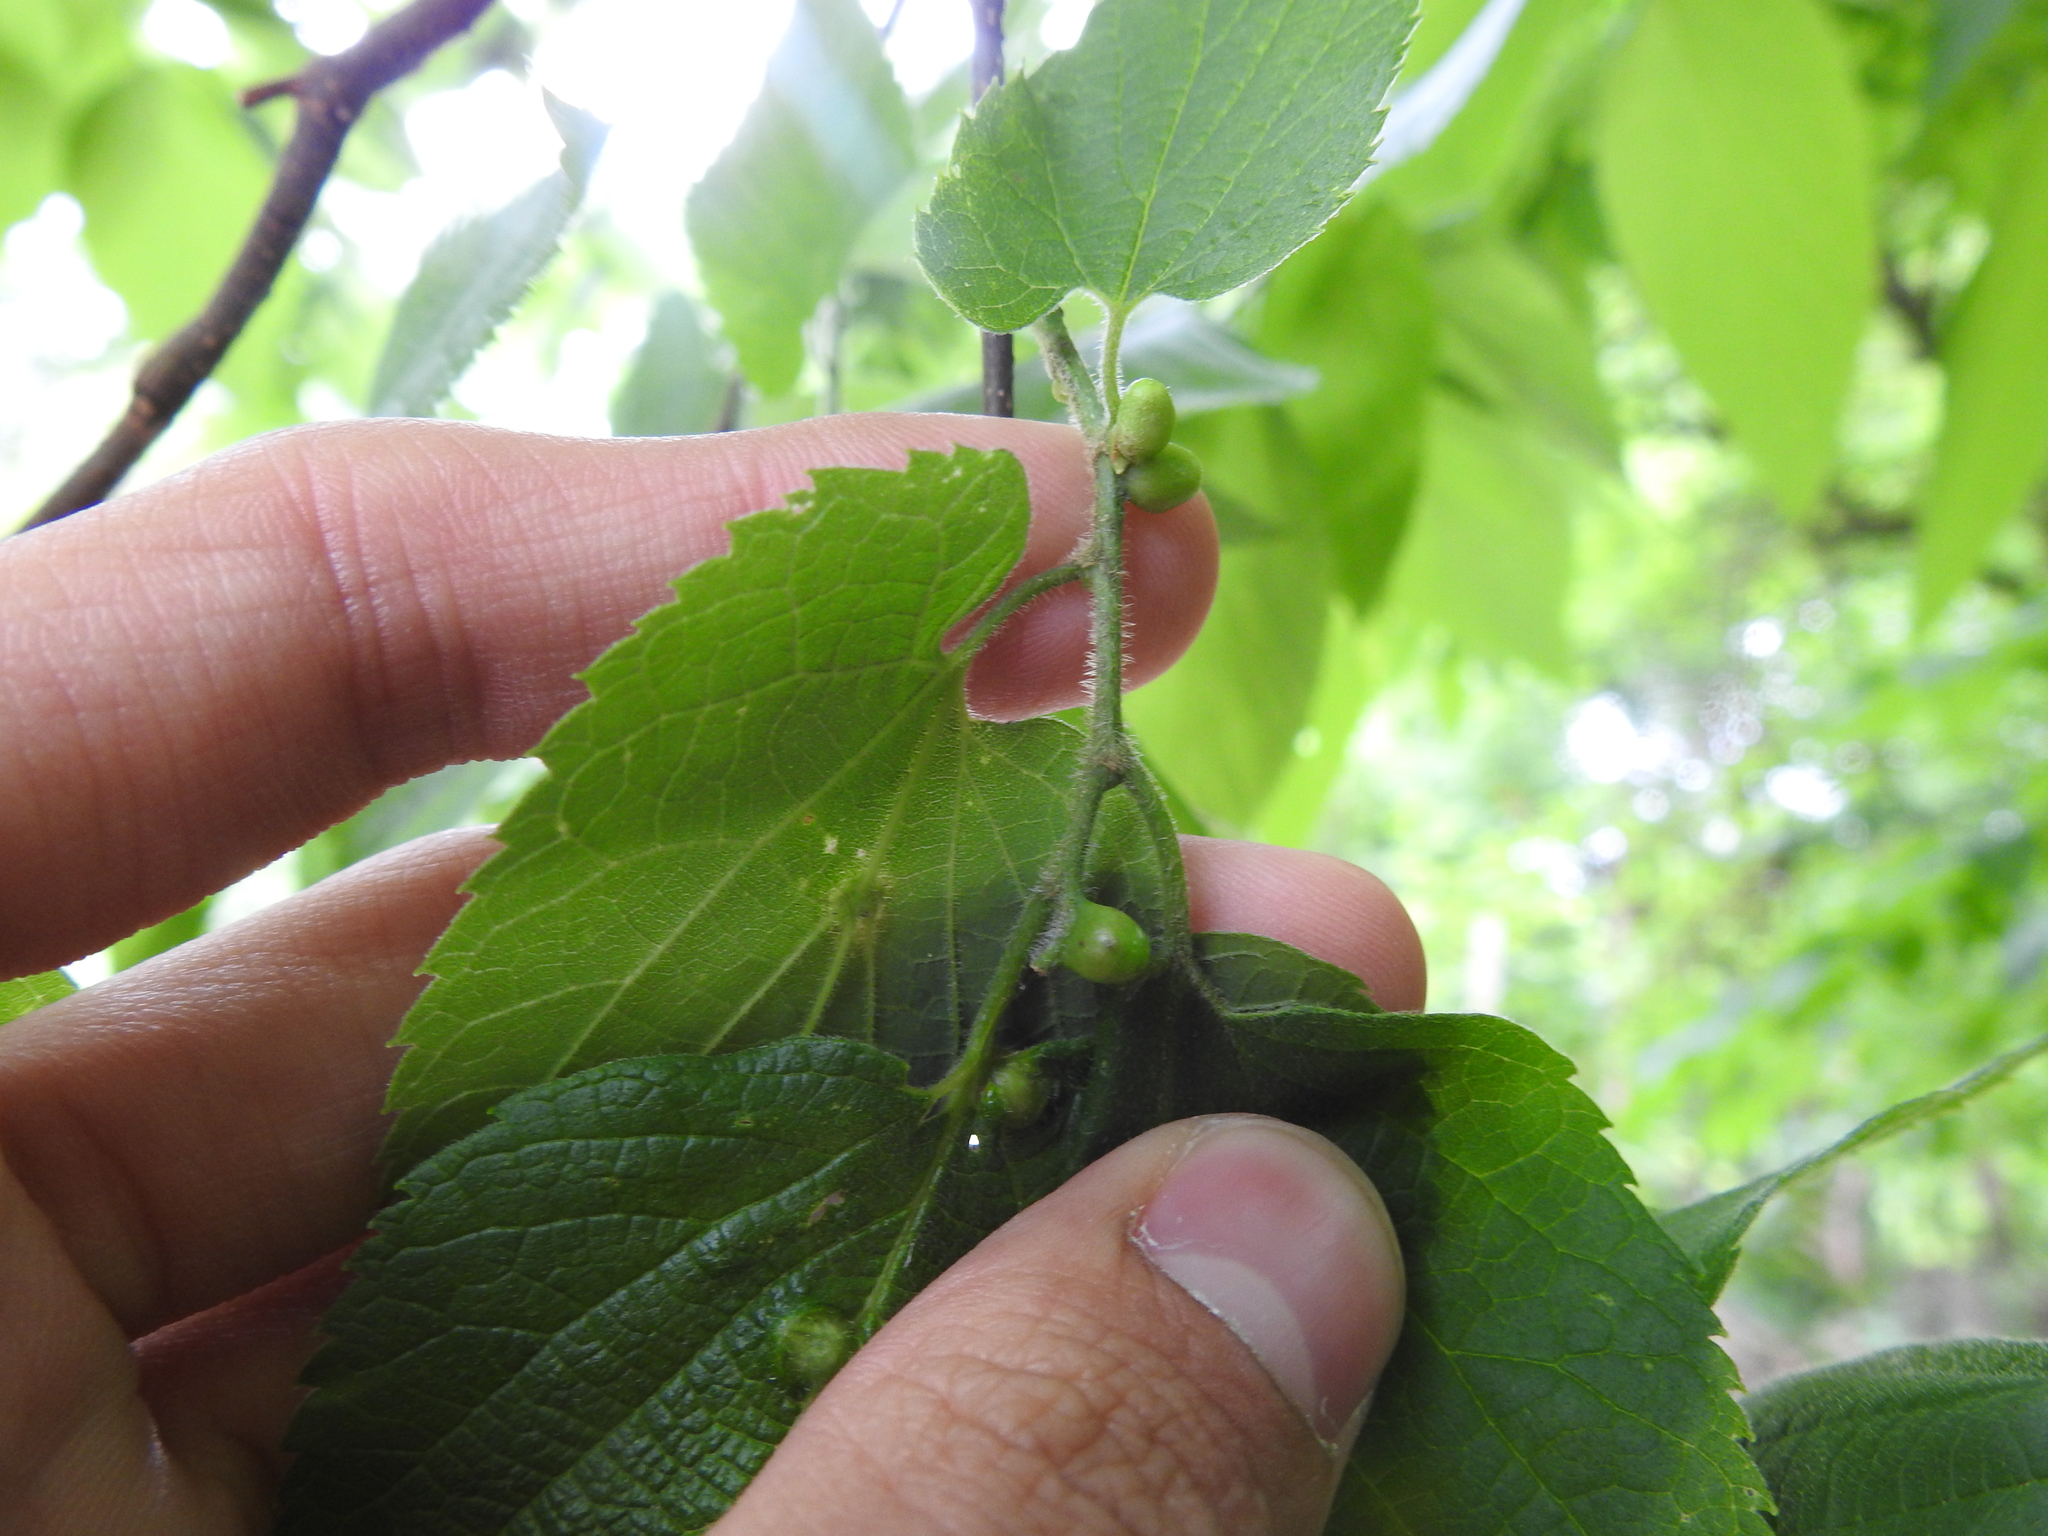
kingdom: Animalia
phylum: Arthropoda
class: Insecta
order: Diptera
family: Cecidomyiidae
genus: Celticecis
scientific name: Celticecis expulsa
